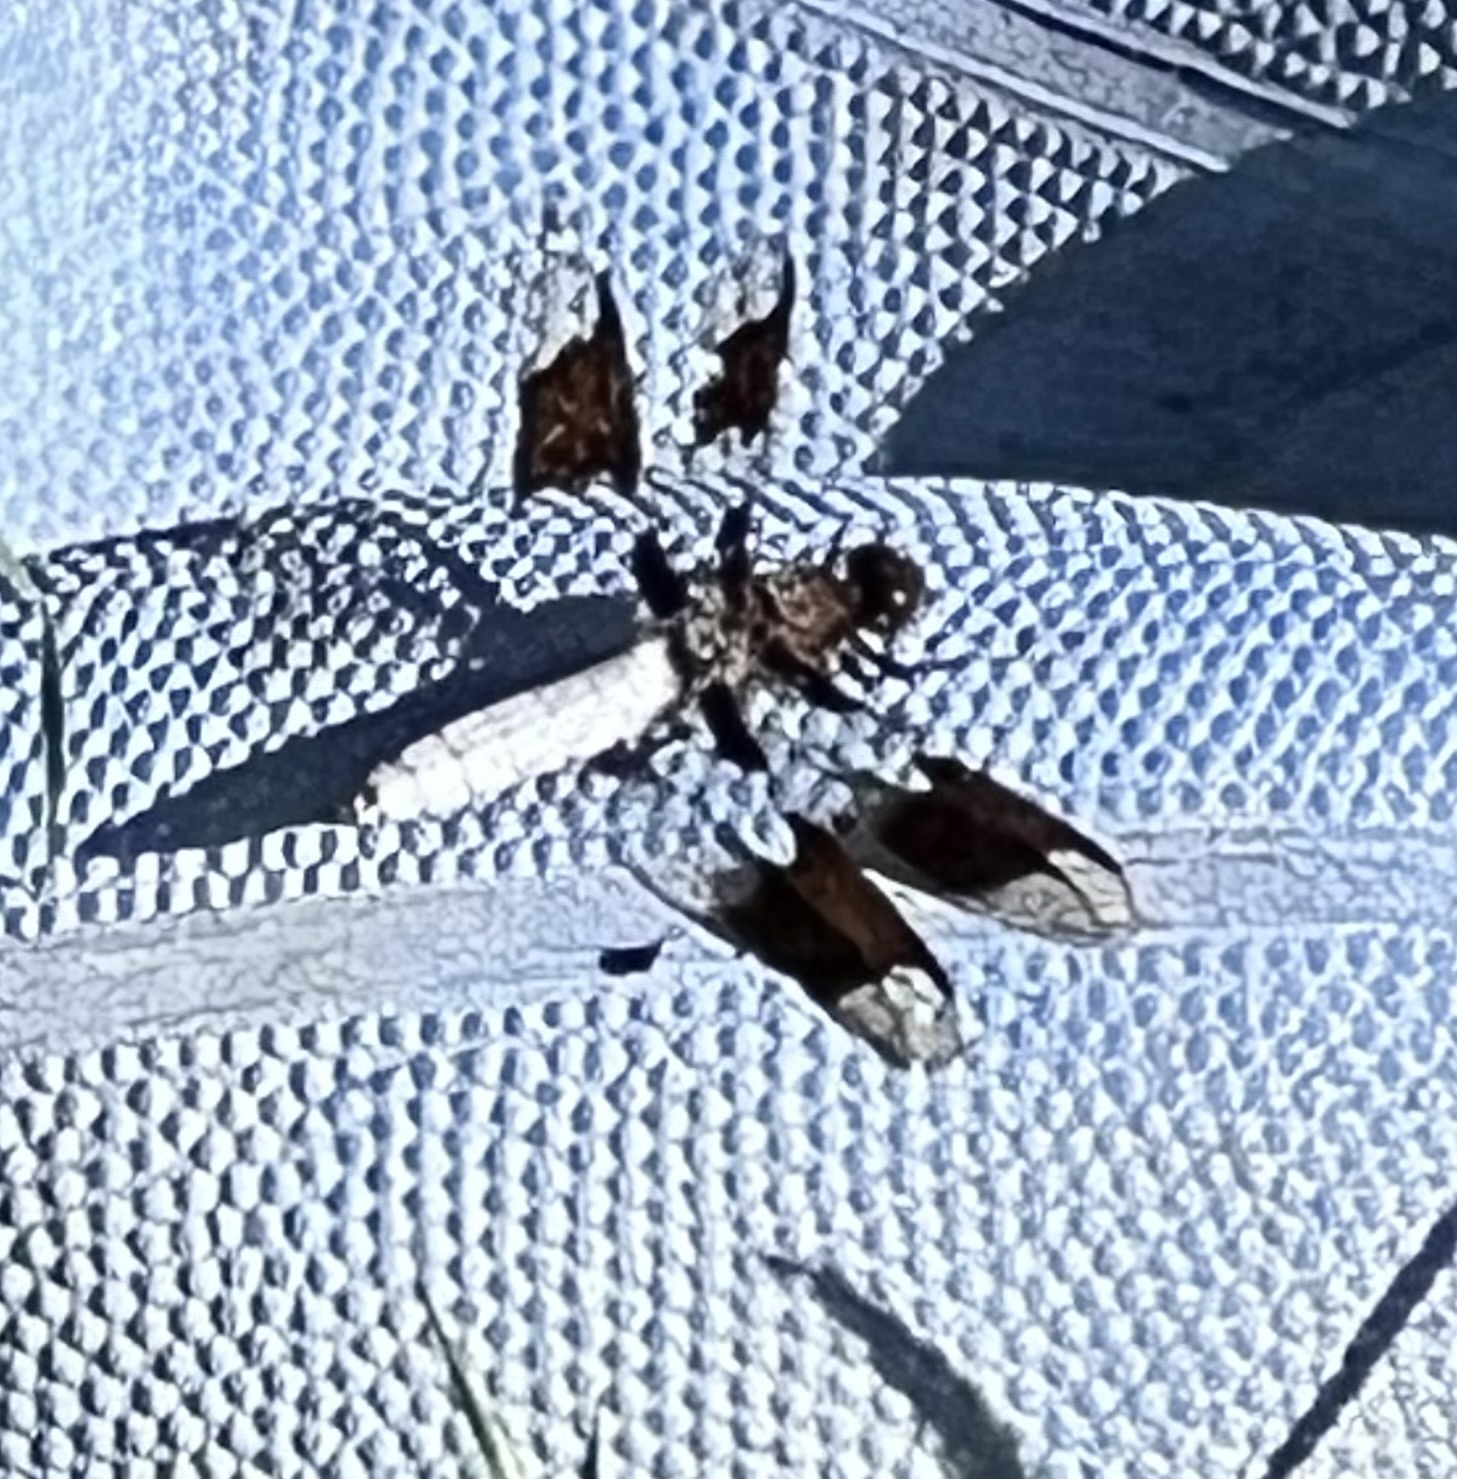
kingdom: Animalia
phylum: Arthropoda
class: Insecta
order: Odonata
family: Libellulidae
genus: Plathemis
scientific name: Plathemis lydia
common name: Common whitetail
